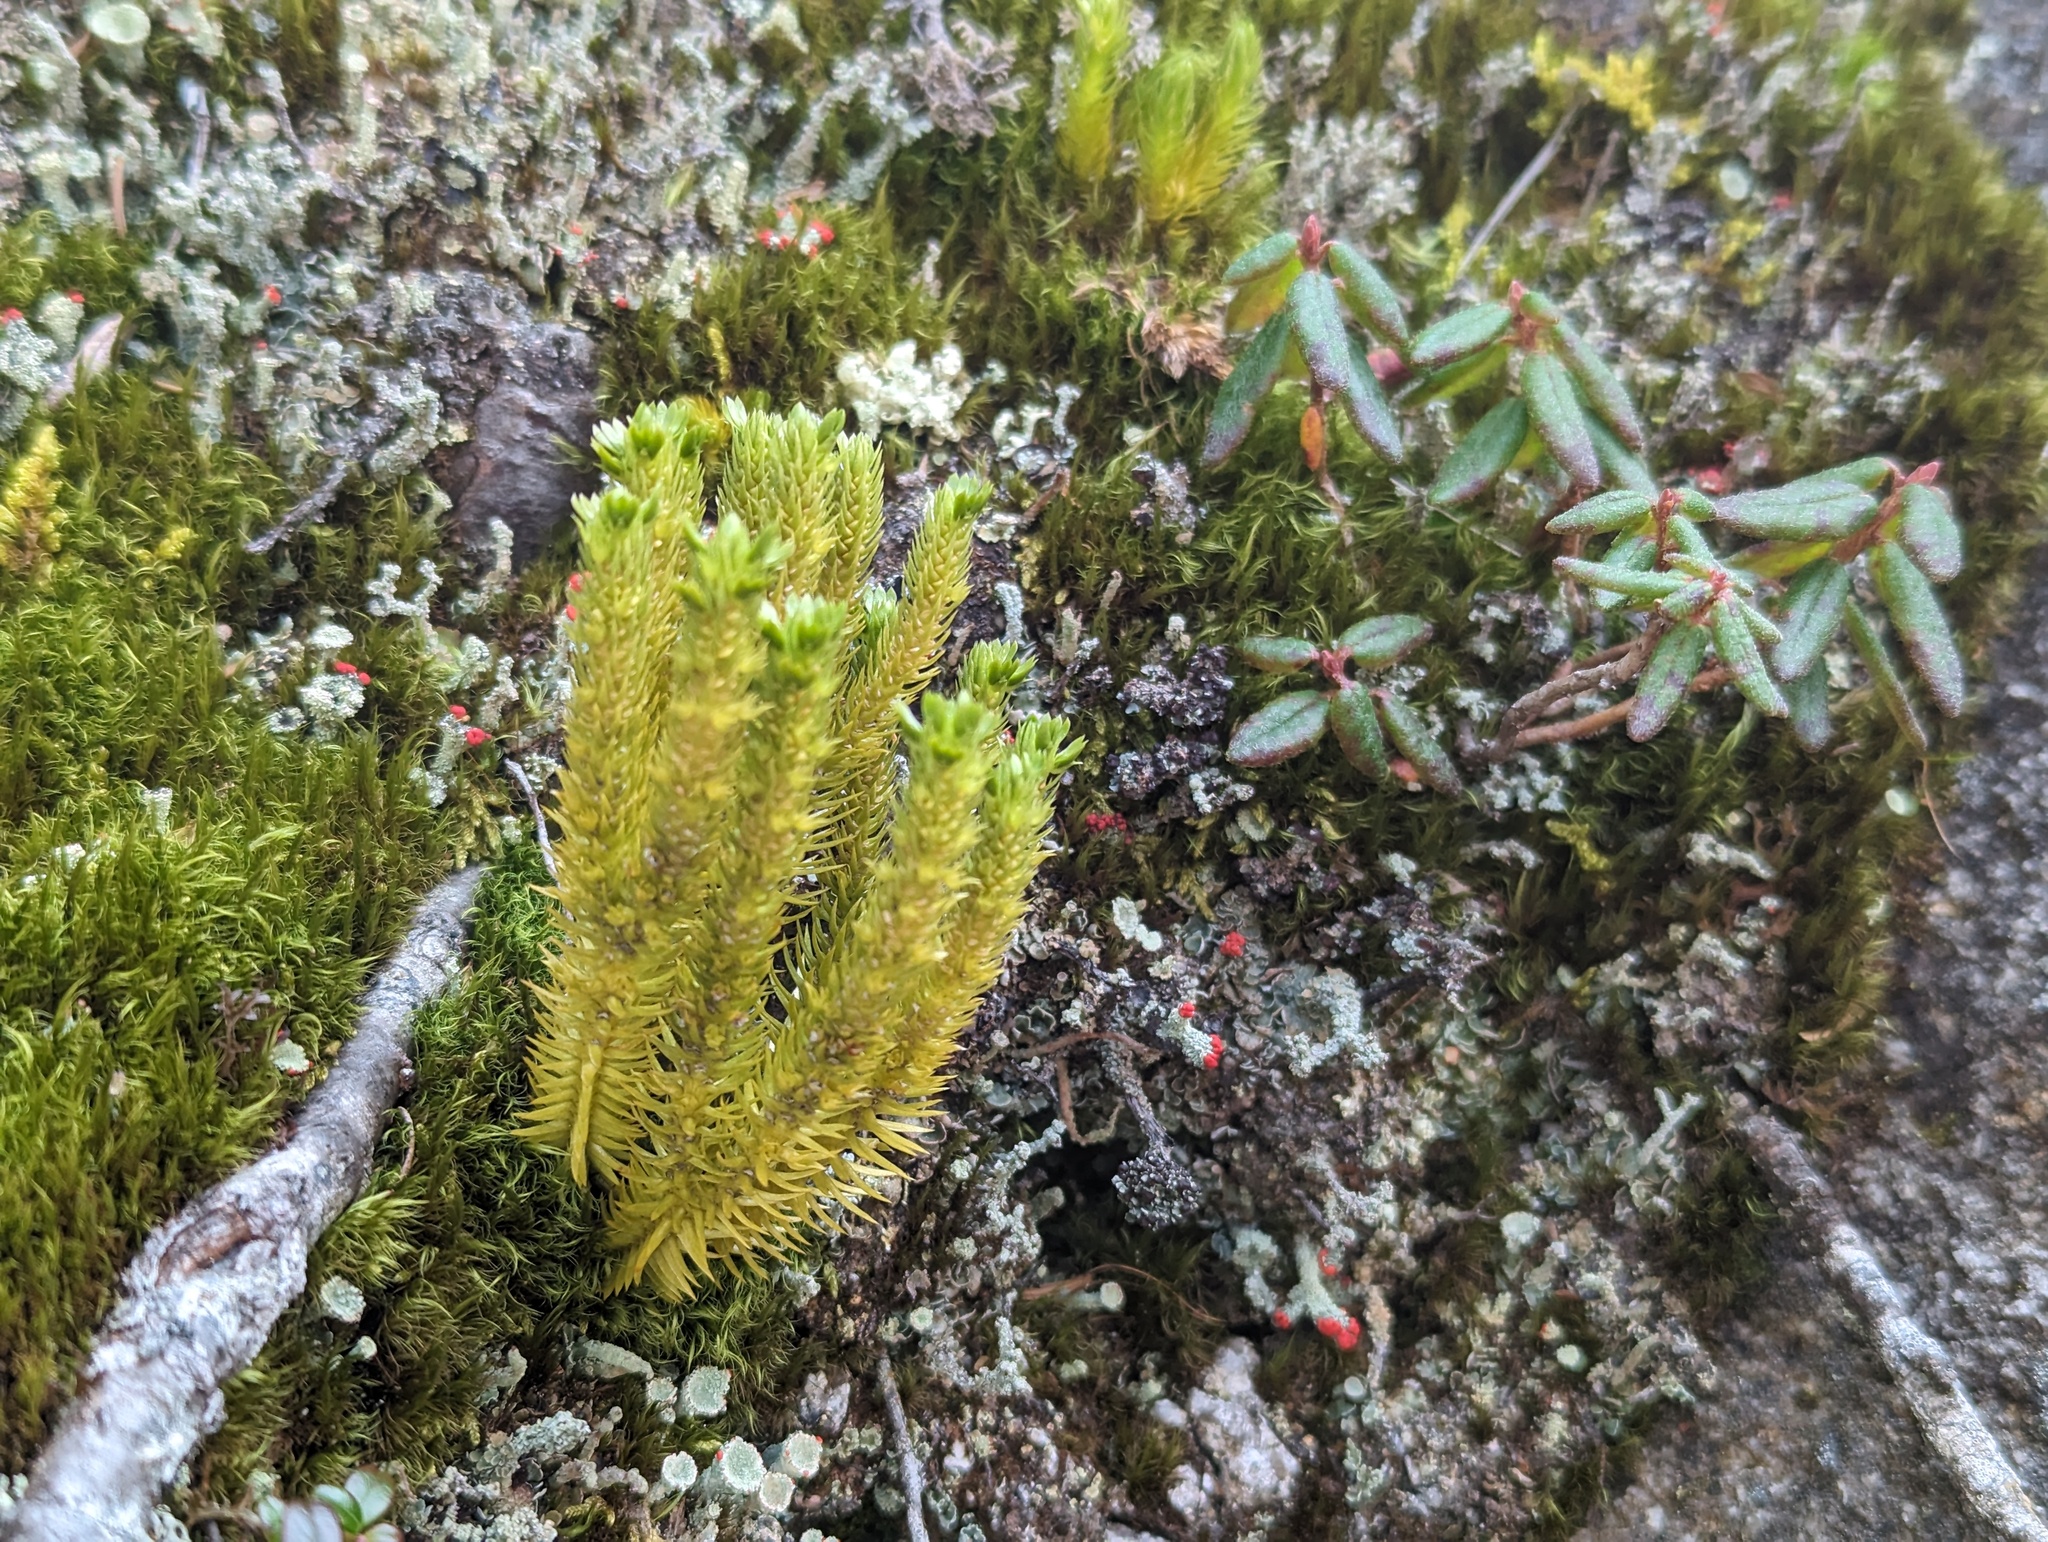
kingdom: Plantae
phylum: Tracheophyta
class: Lycopodiopsida
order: Lycopodiales
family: Lycopodiaceae
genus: Huperzia
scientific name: Huperzia selago
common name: Northern firmoss
